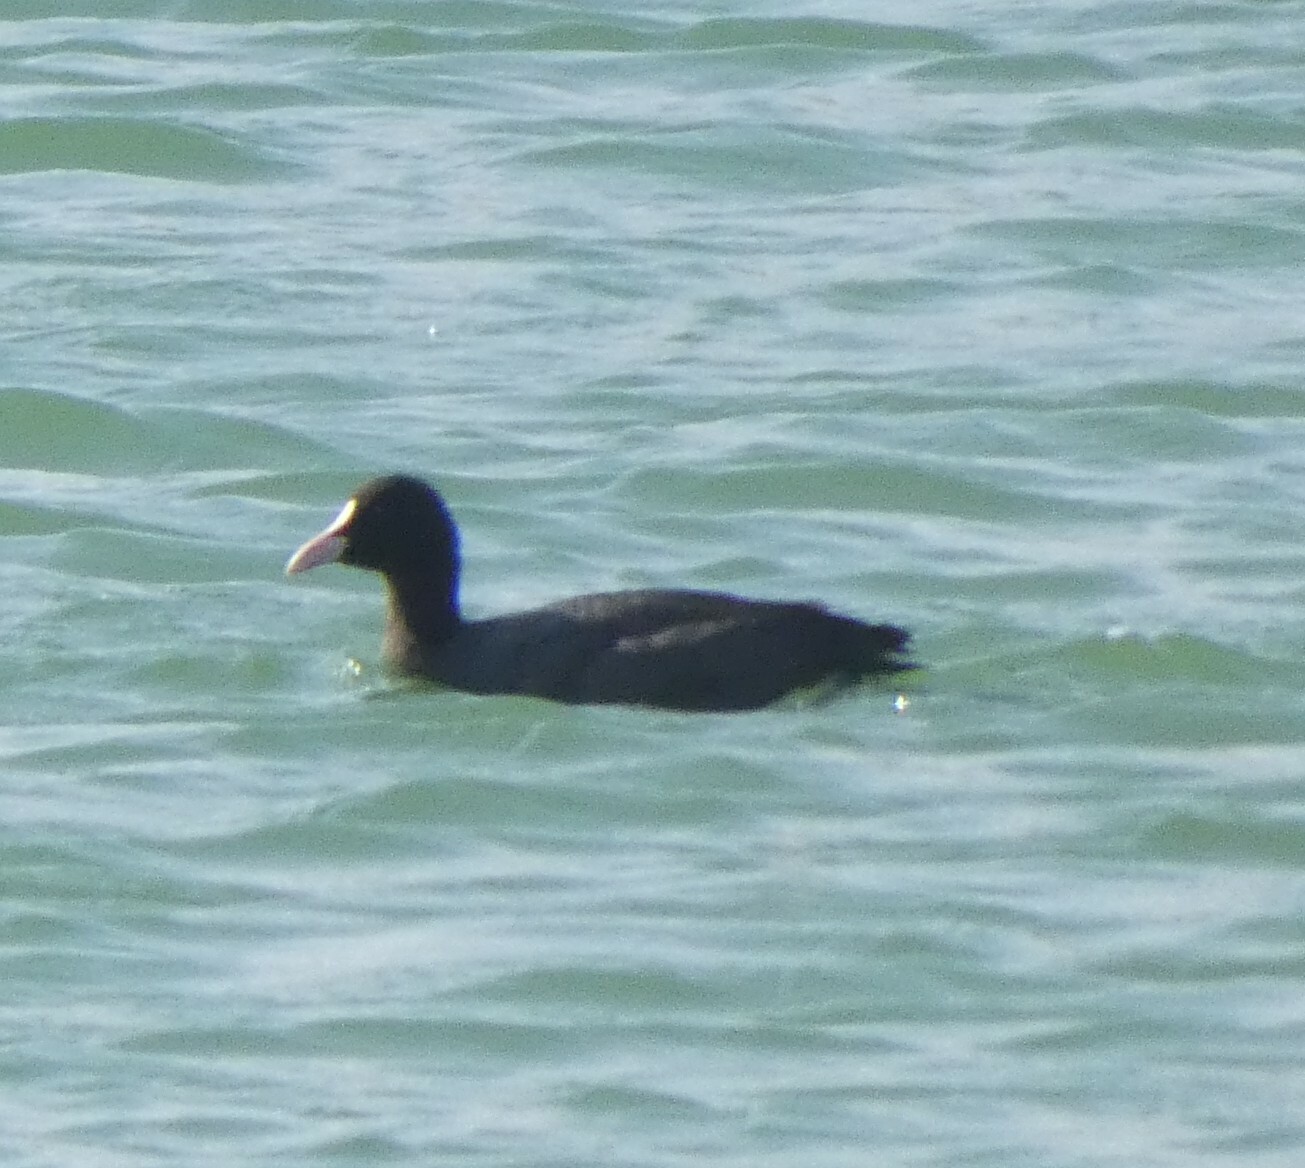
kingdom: Animalia
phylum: Chordata
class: Aves
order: Gruiformes
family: Rallidae
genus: Fulica
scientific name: Fulica atra
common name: Eurasian coot
